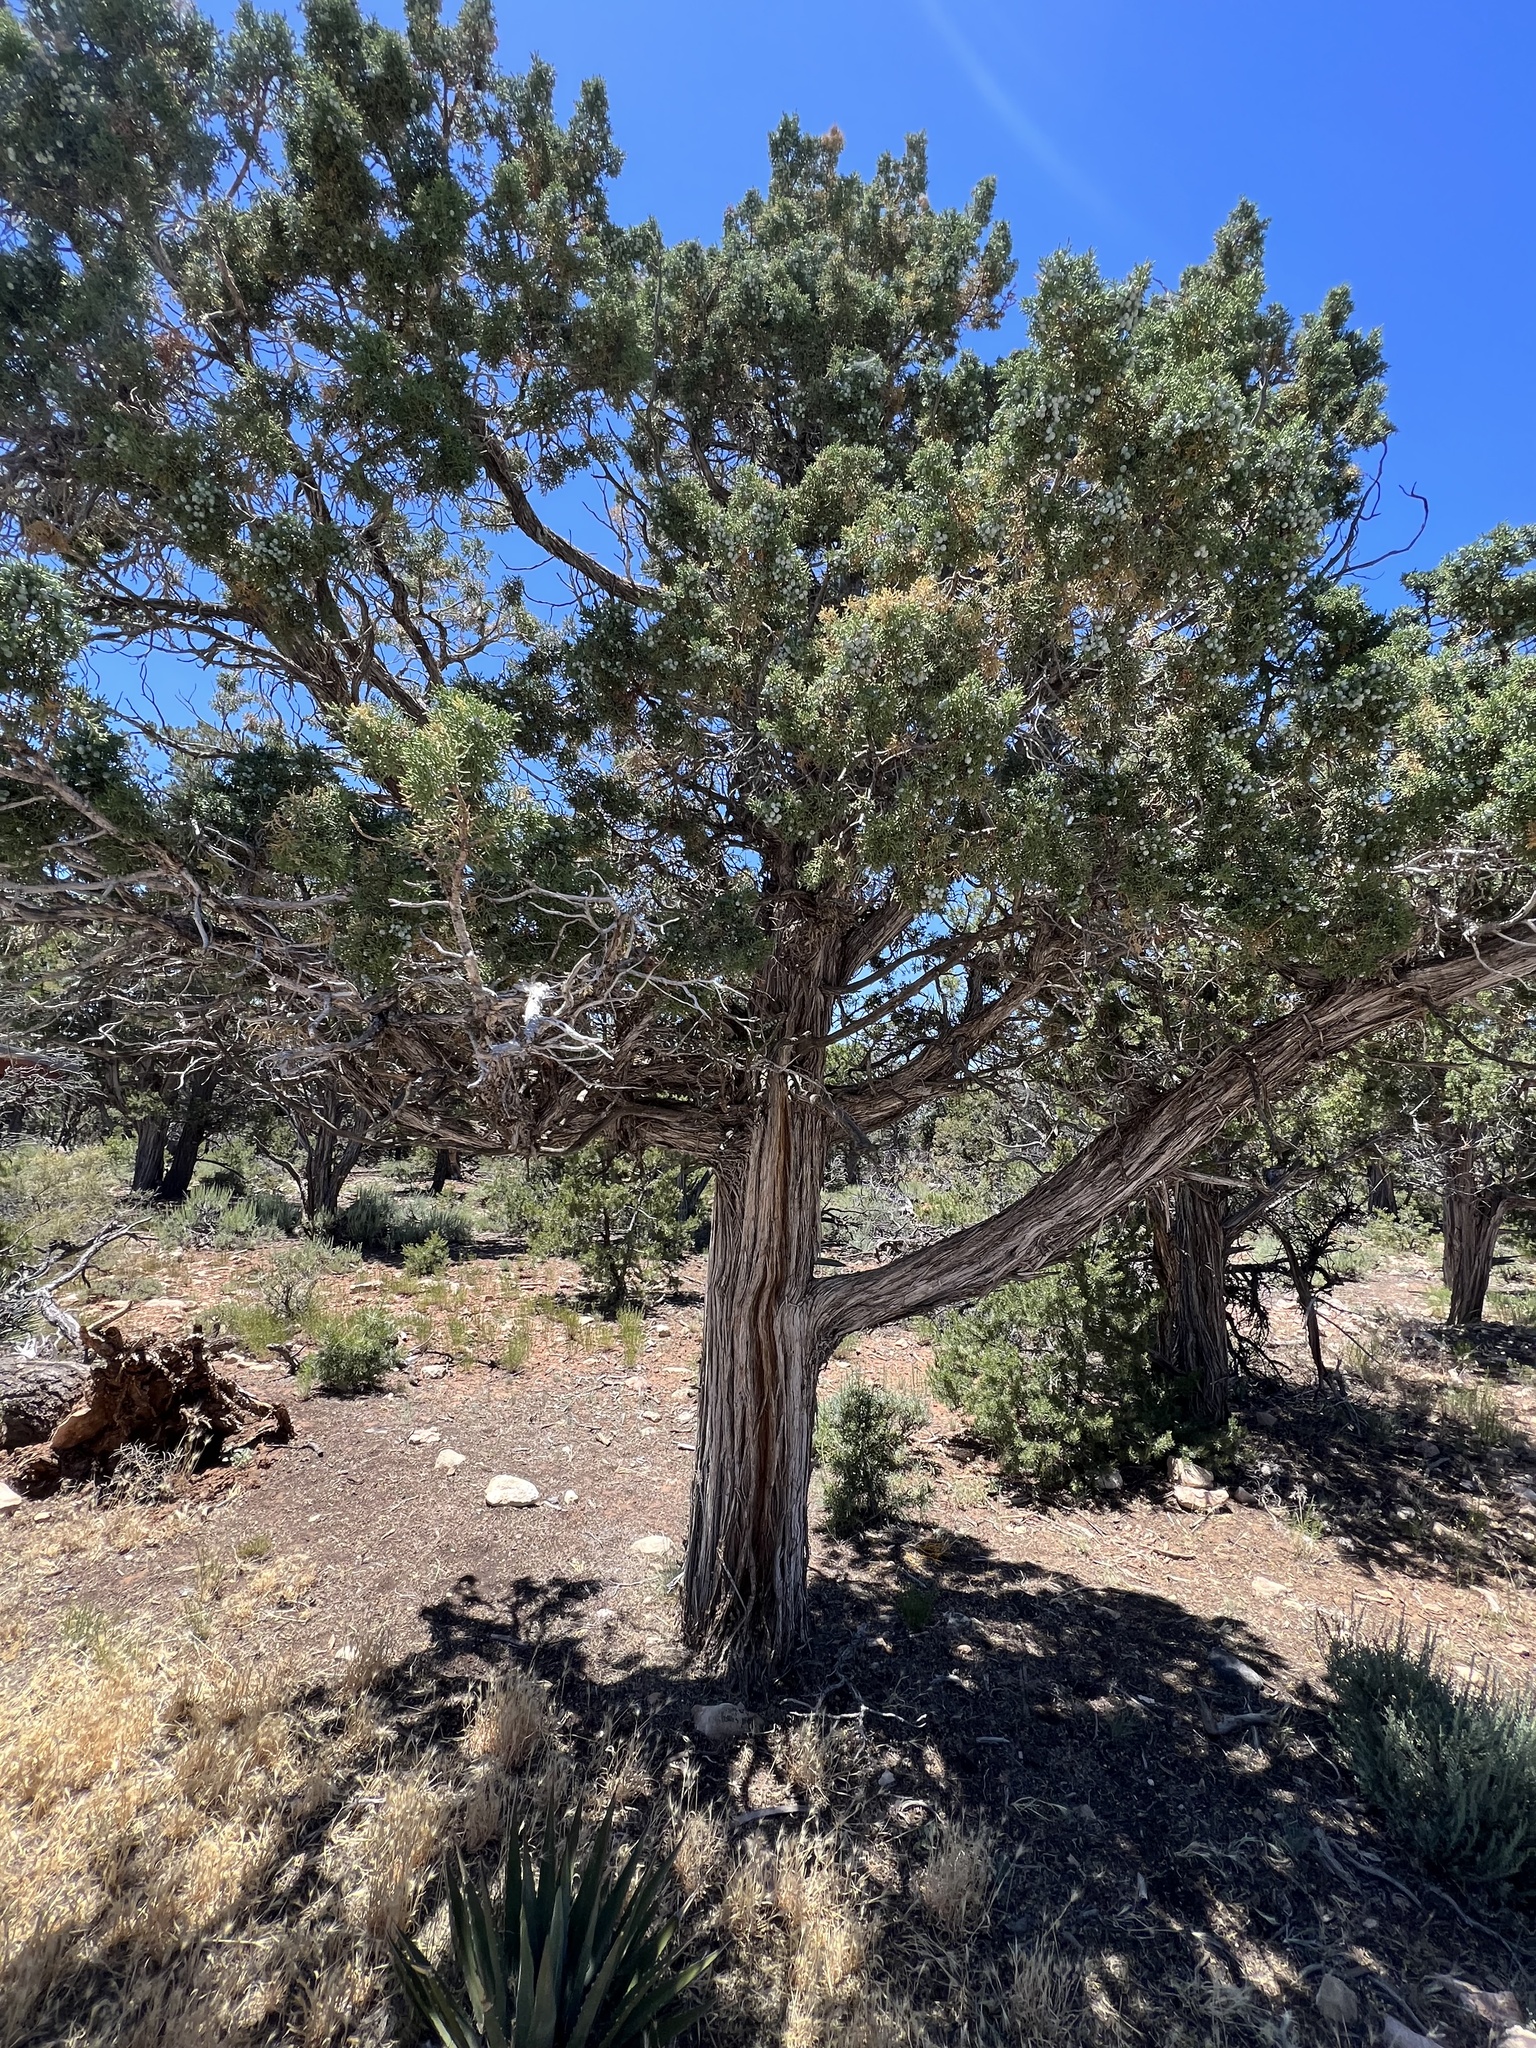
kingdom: Plantae
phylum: Tracheophyta
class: Pinopsida
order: Pinales
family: Cupressaceae
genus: Juniperus
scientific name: Juniperus osteosperma
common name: Utah juniper
